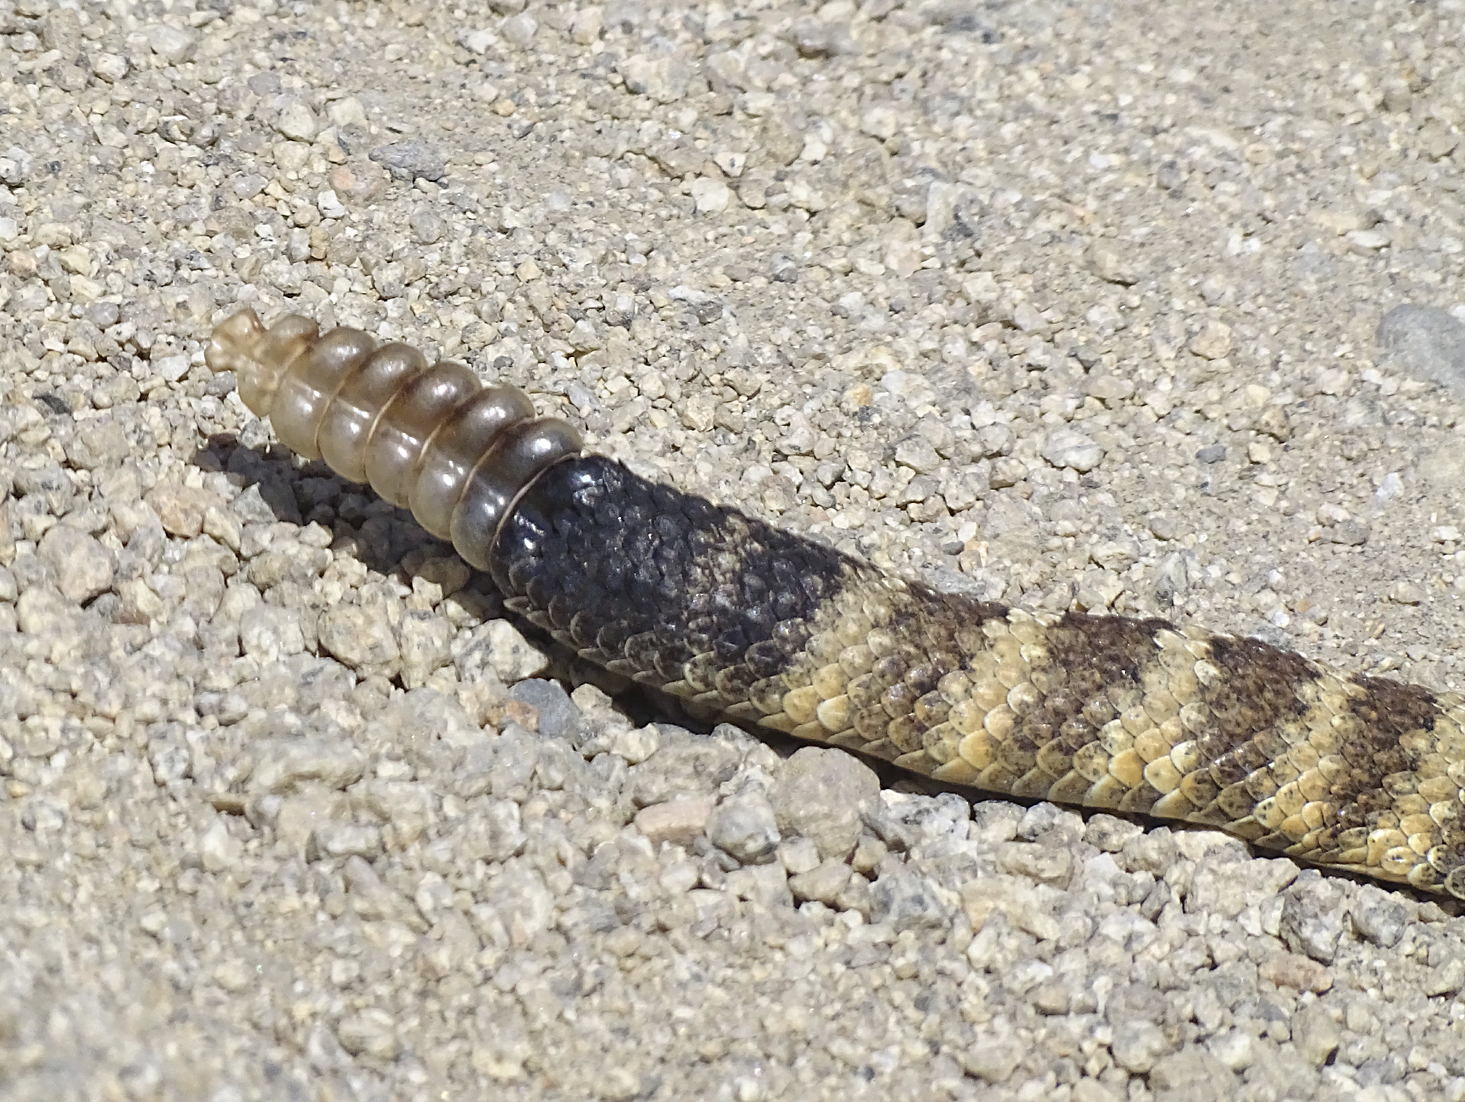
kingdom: Animalia
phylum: Chordata
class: Squamata
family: Viperidae
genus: Crotalus
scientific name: Crotalus stephensi
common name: Panamint rattlesnake
